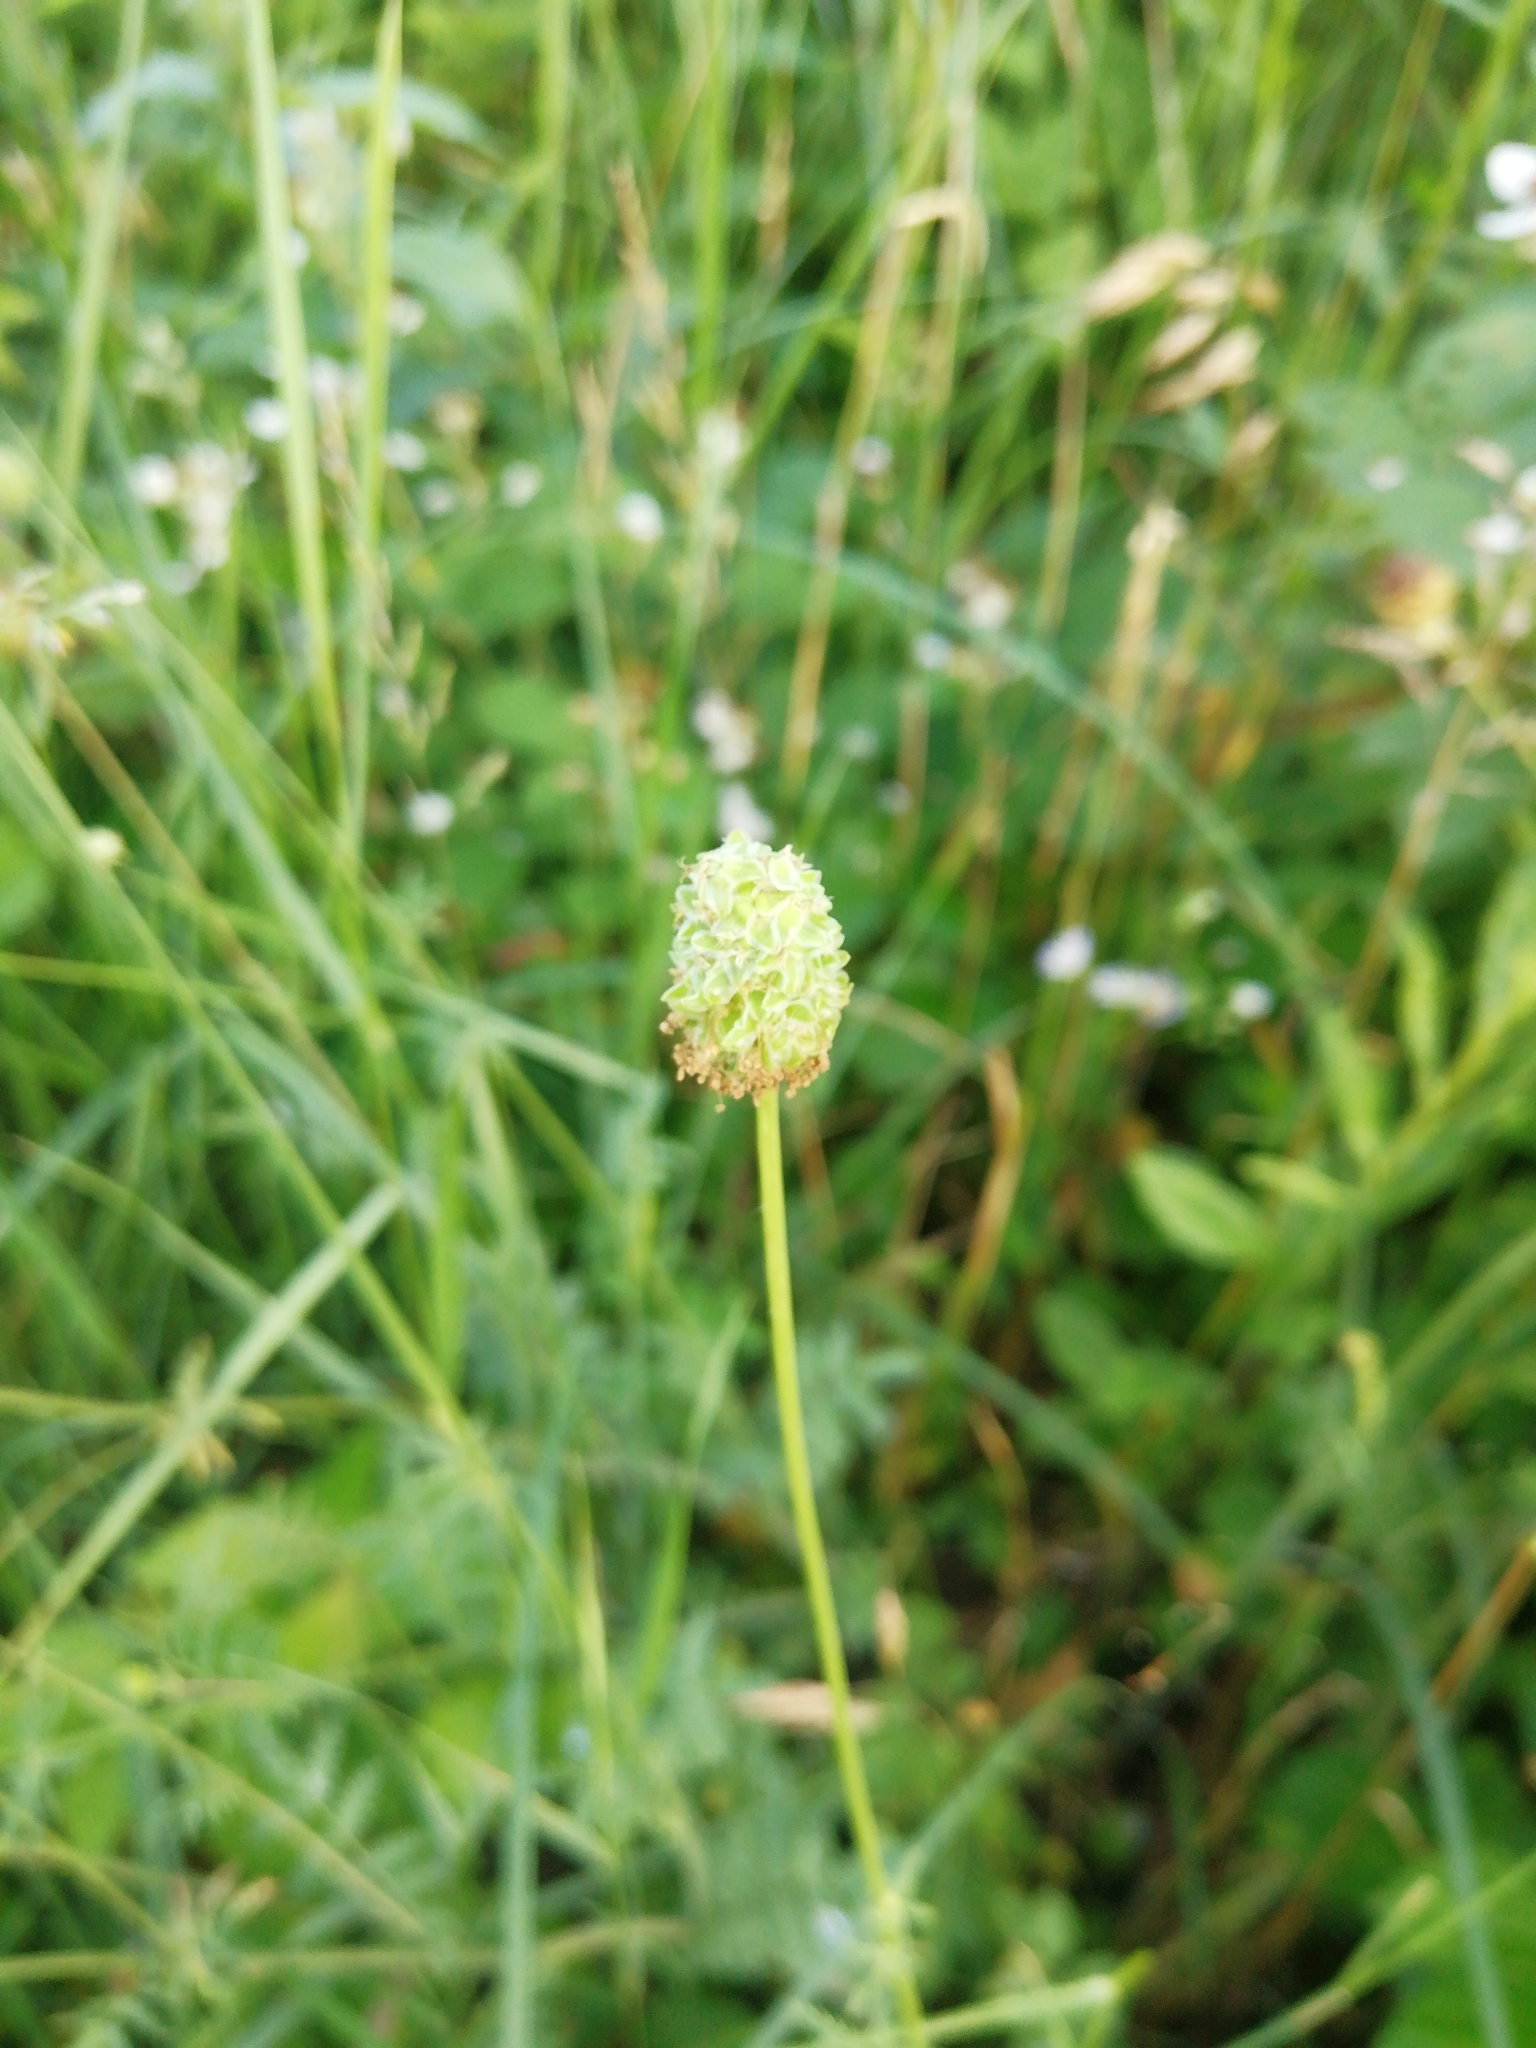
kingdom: Plantae
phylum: Tracheophyta
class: Magnoliopsida
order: Rosales
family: Rosaceae
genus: Poterium
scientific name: Poterium sanguisorba
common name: Salad burnet
